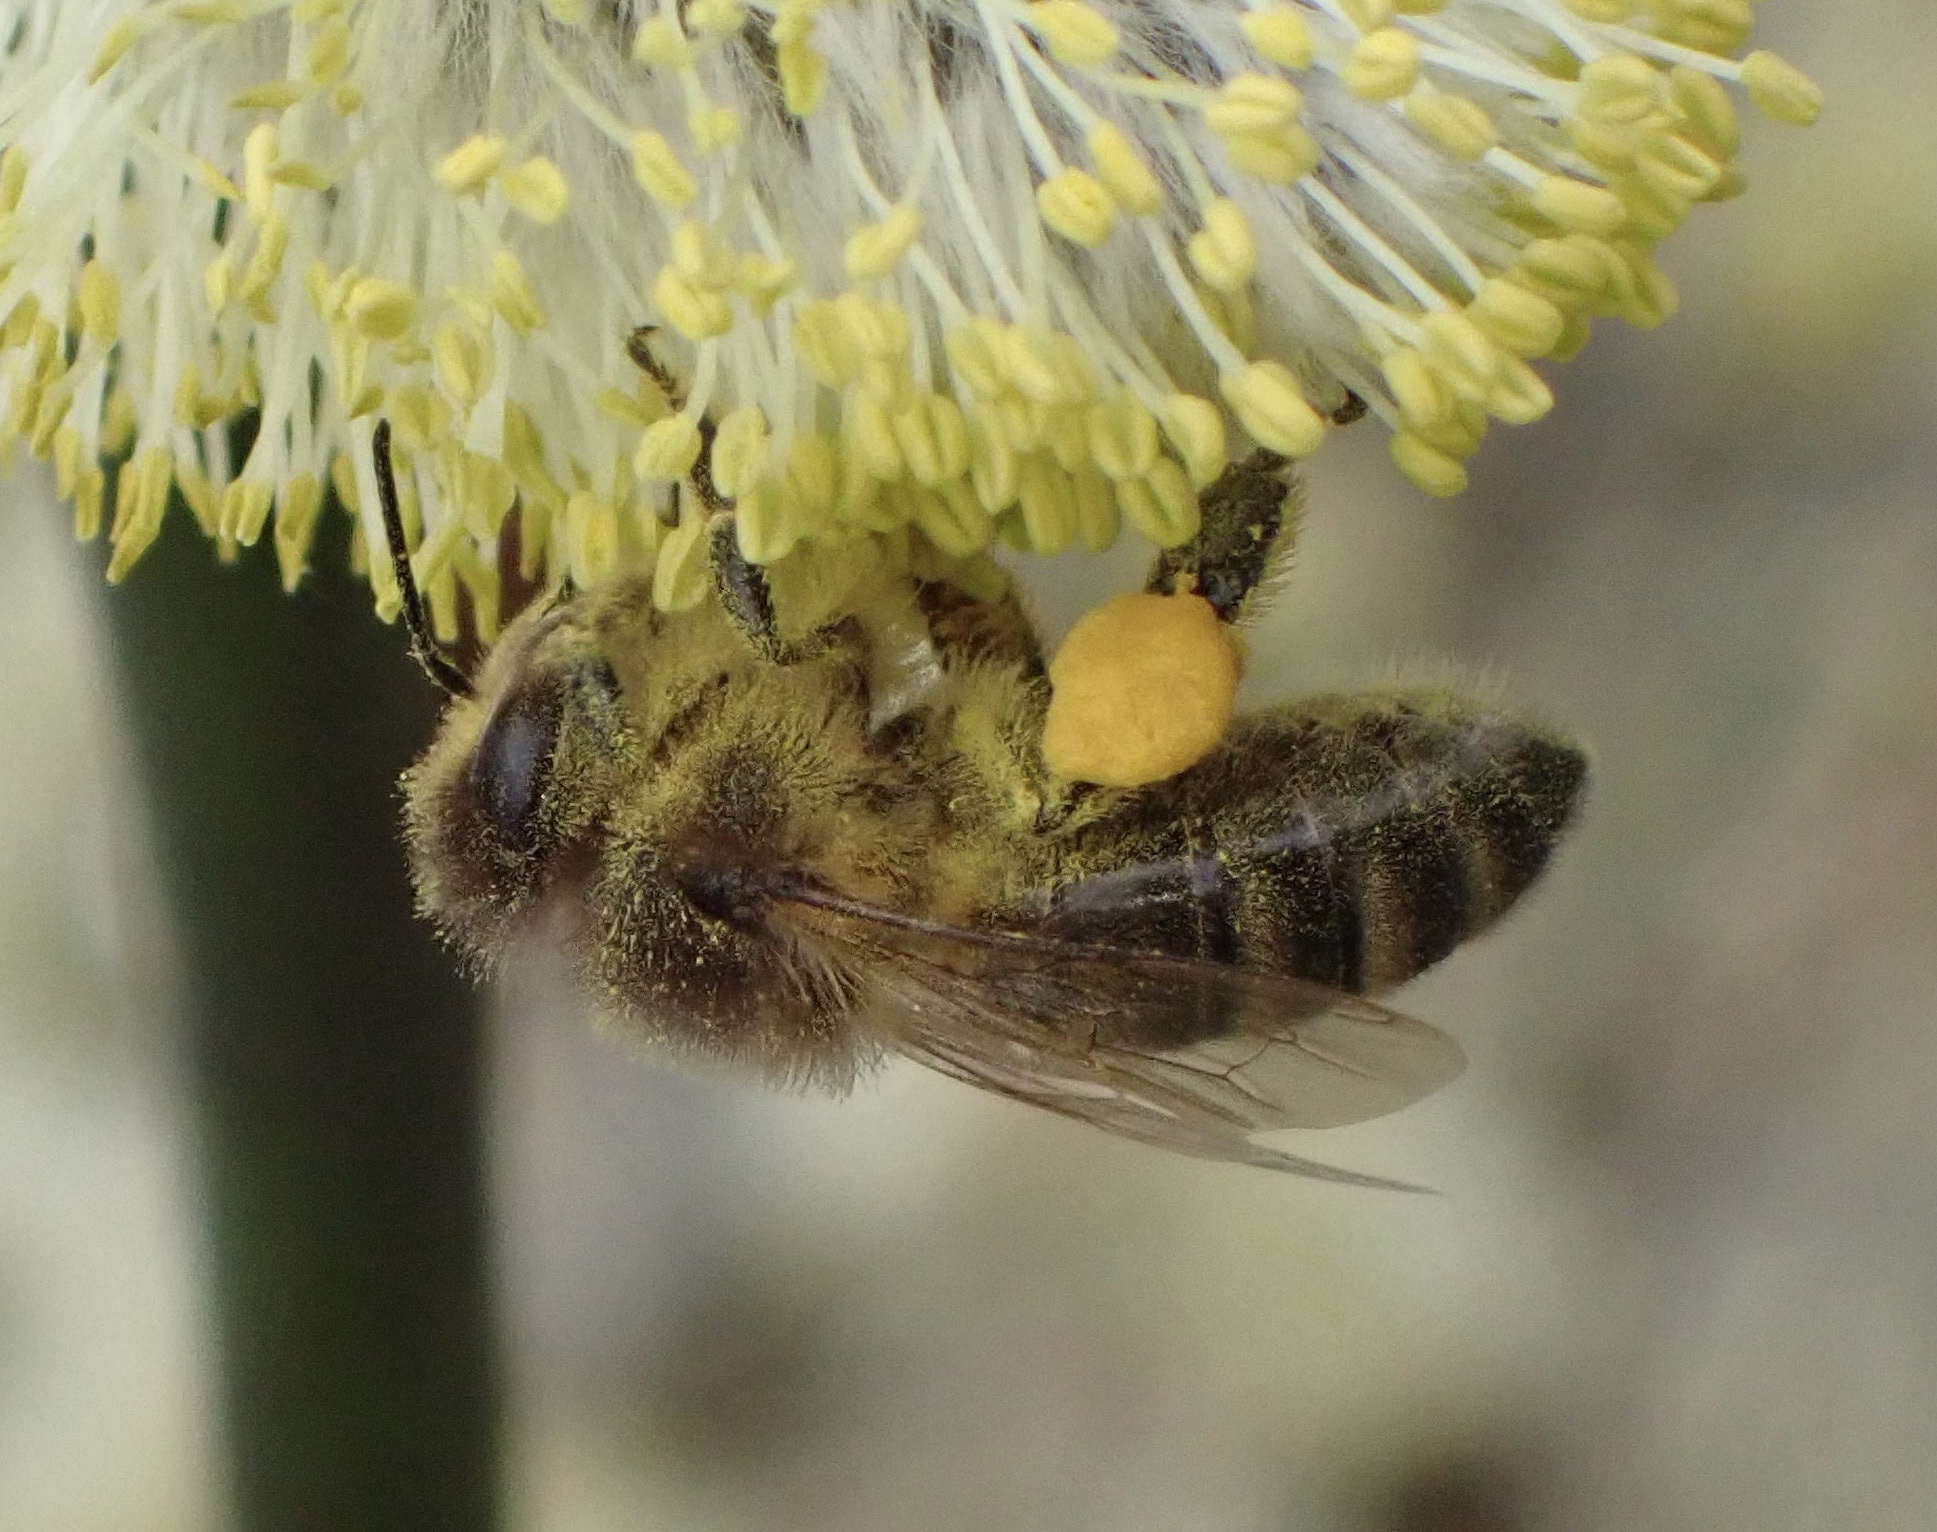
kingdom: Animalia
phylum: Arthropoda
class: Insecta
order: Hymenoptera
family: Apidae
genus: Apis
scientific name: Apis mellifera
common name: Honey bee
